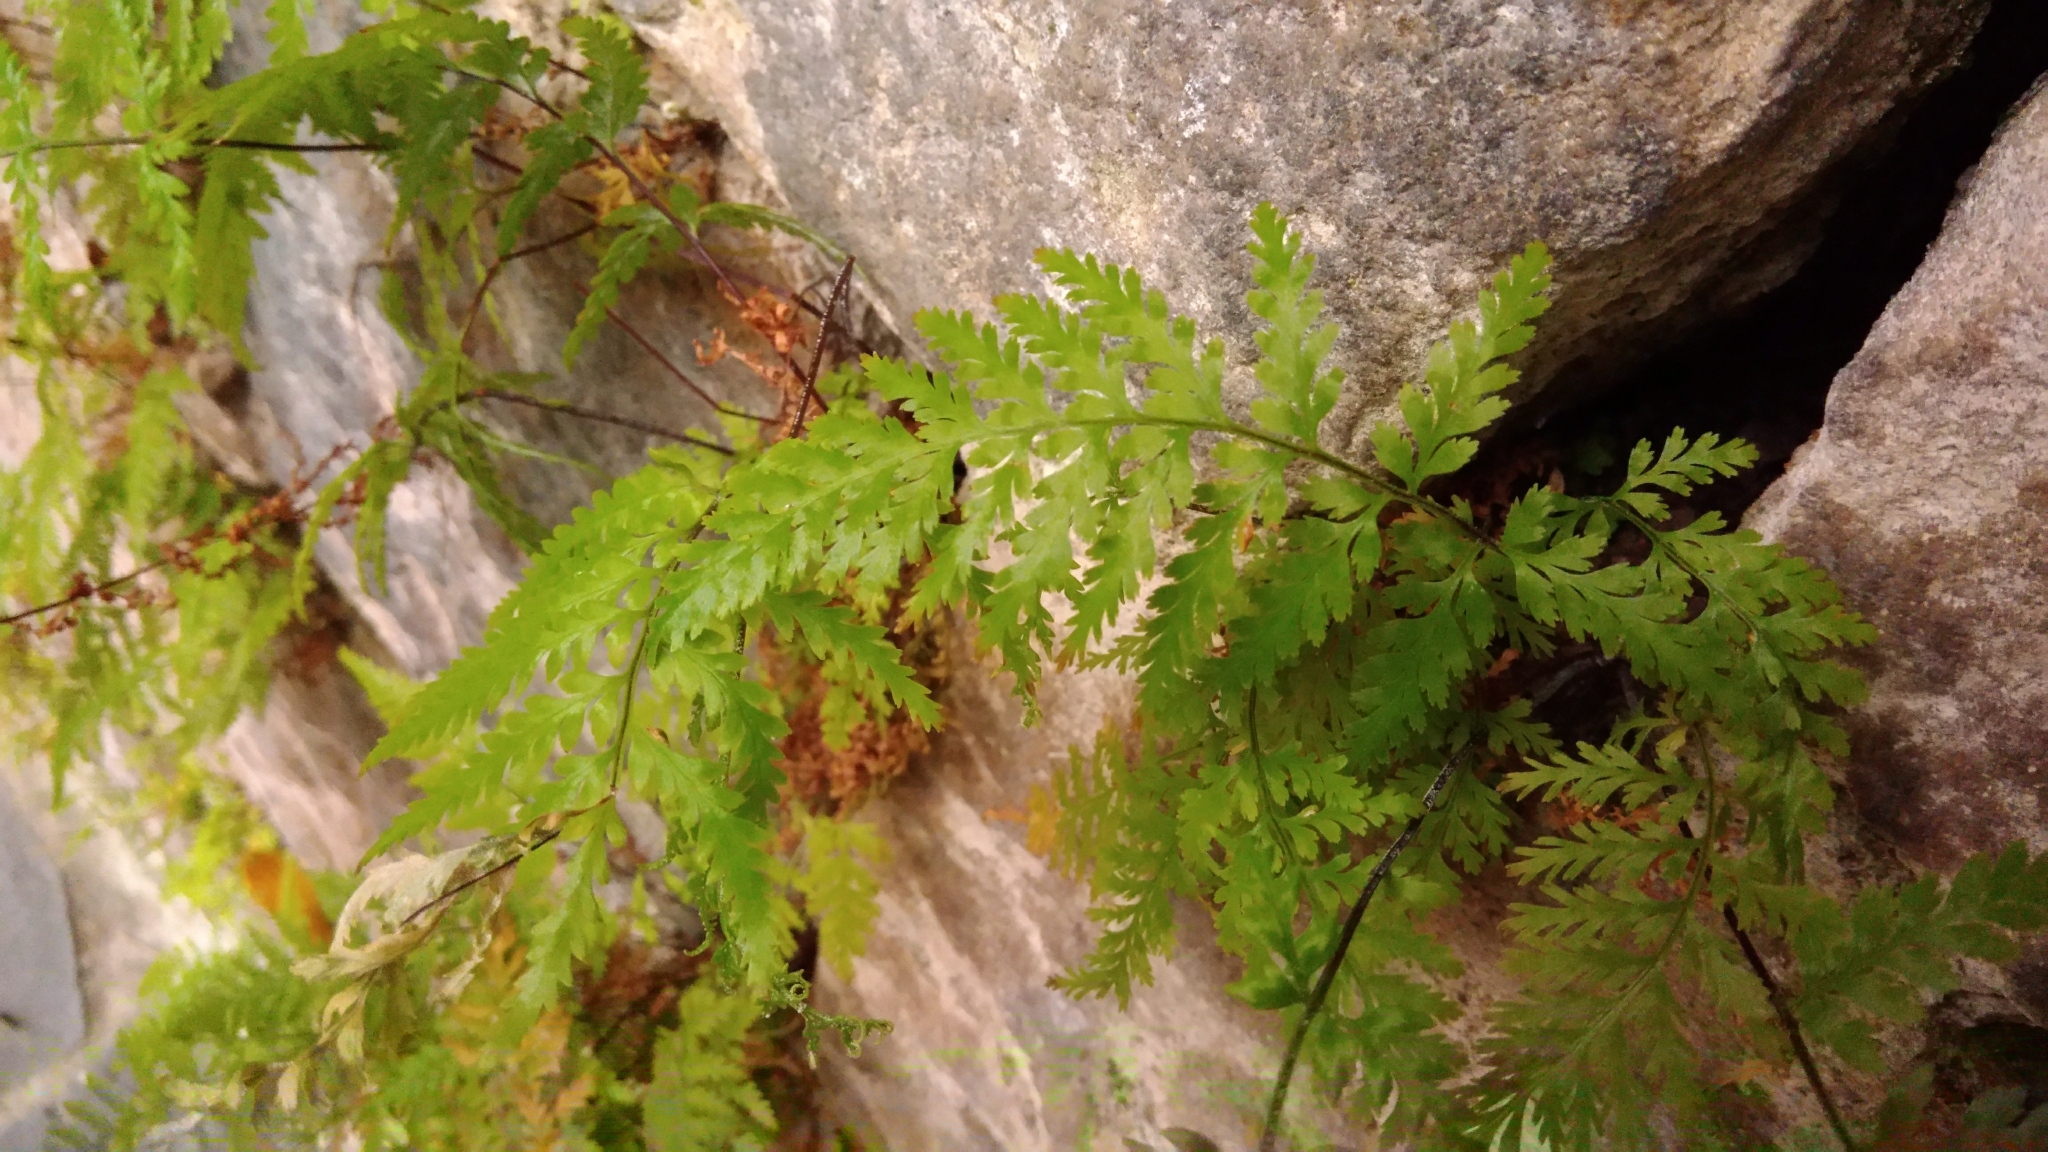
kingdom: Plantae
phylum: Tracheophyta
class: Polypodiopsida
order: Polypodiales
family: Pteridaceae
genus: Pityrogramma
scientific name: Pityrogramma calomelanos
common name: Dixie silverback fern
